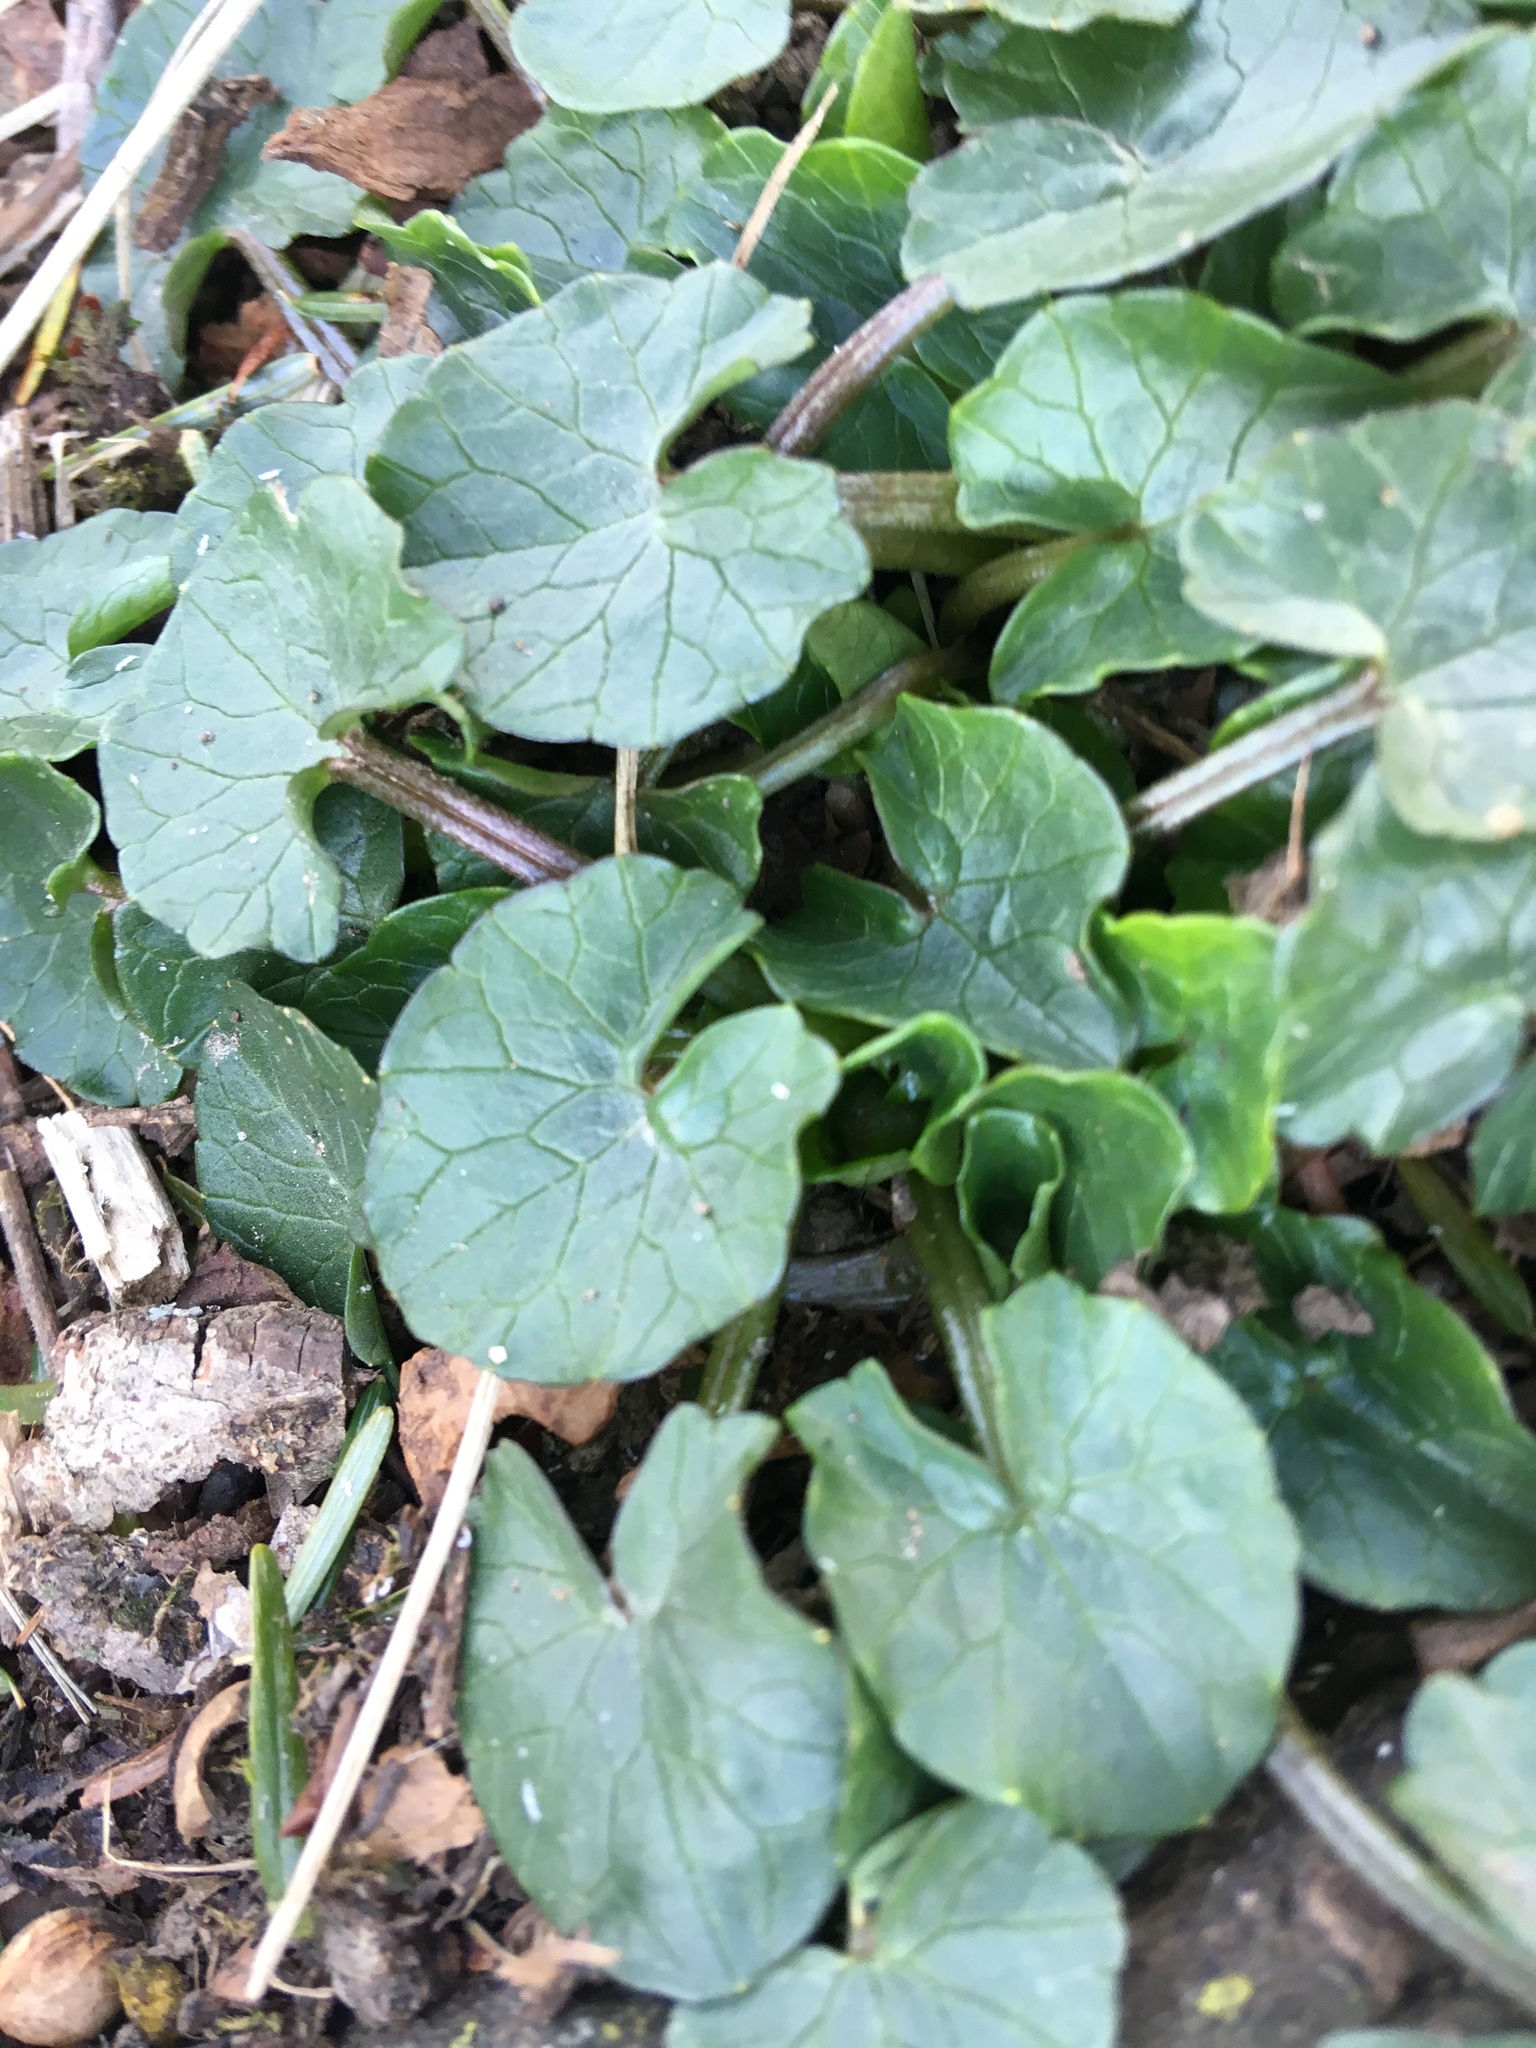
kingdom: Plantae
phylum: Tracheophyta
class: Magnoliopsida
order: Ranunculales
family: Ranunculaceae
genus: Ficaria
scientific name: Ficaria verna
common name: Lesser celandine
